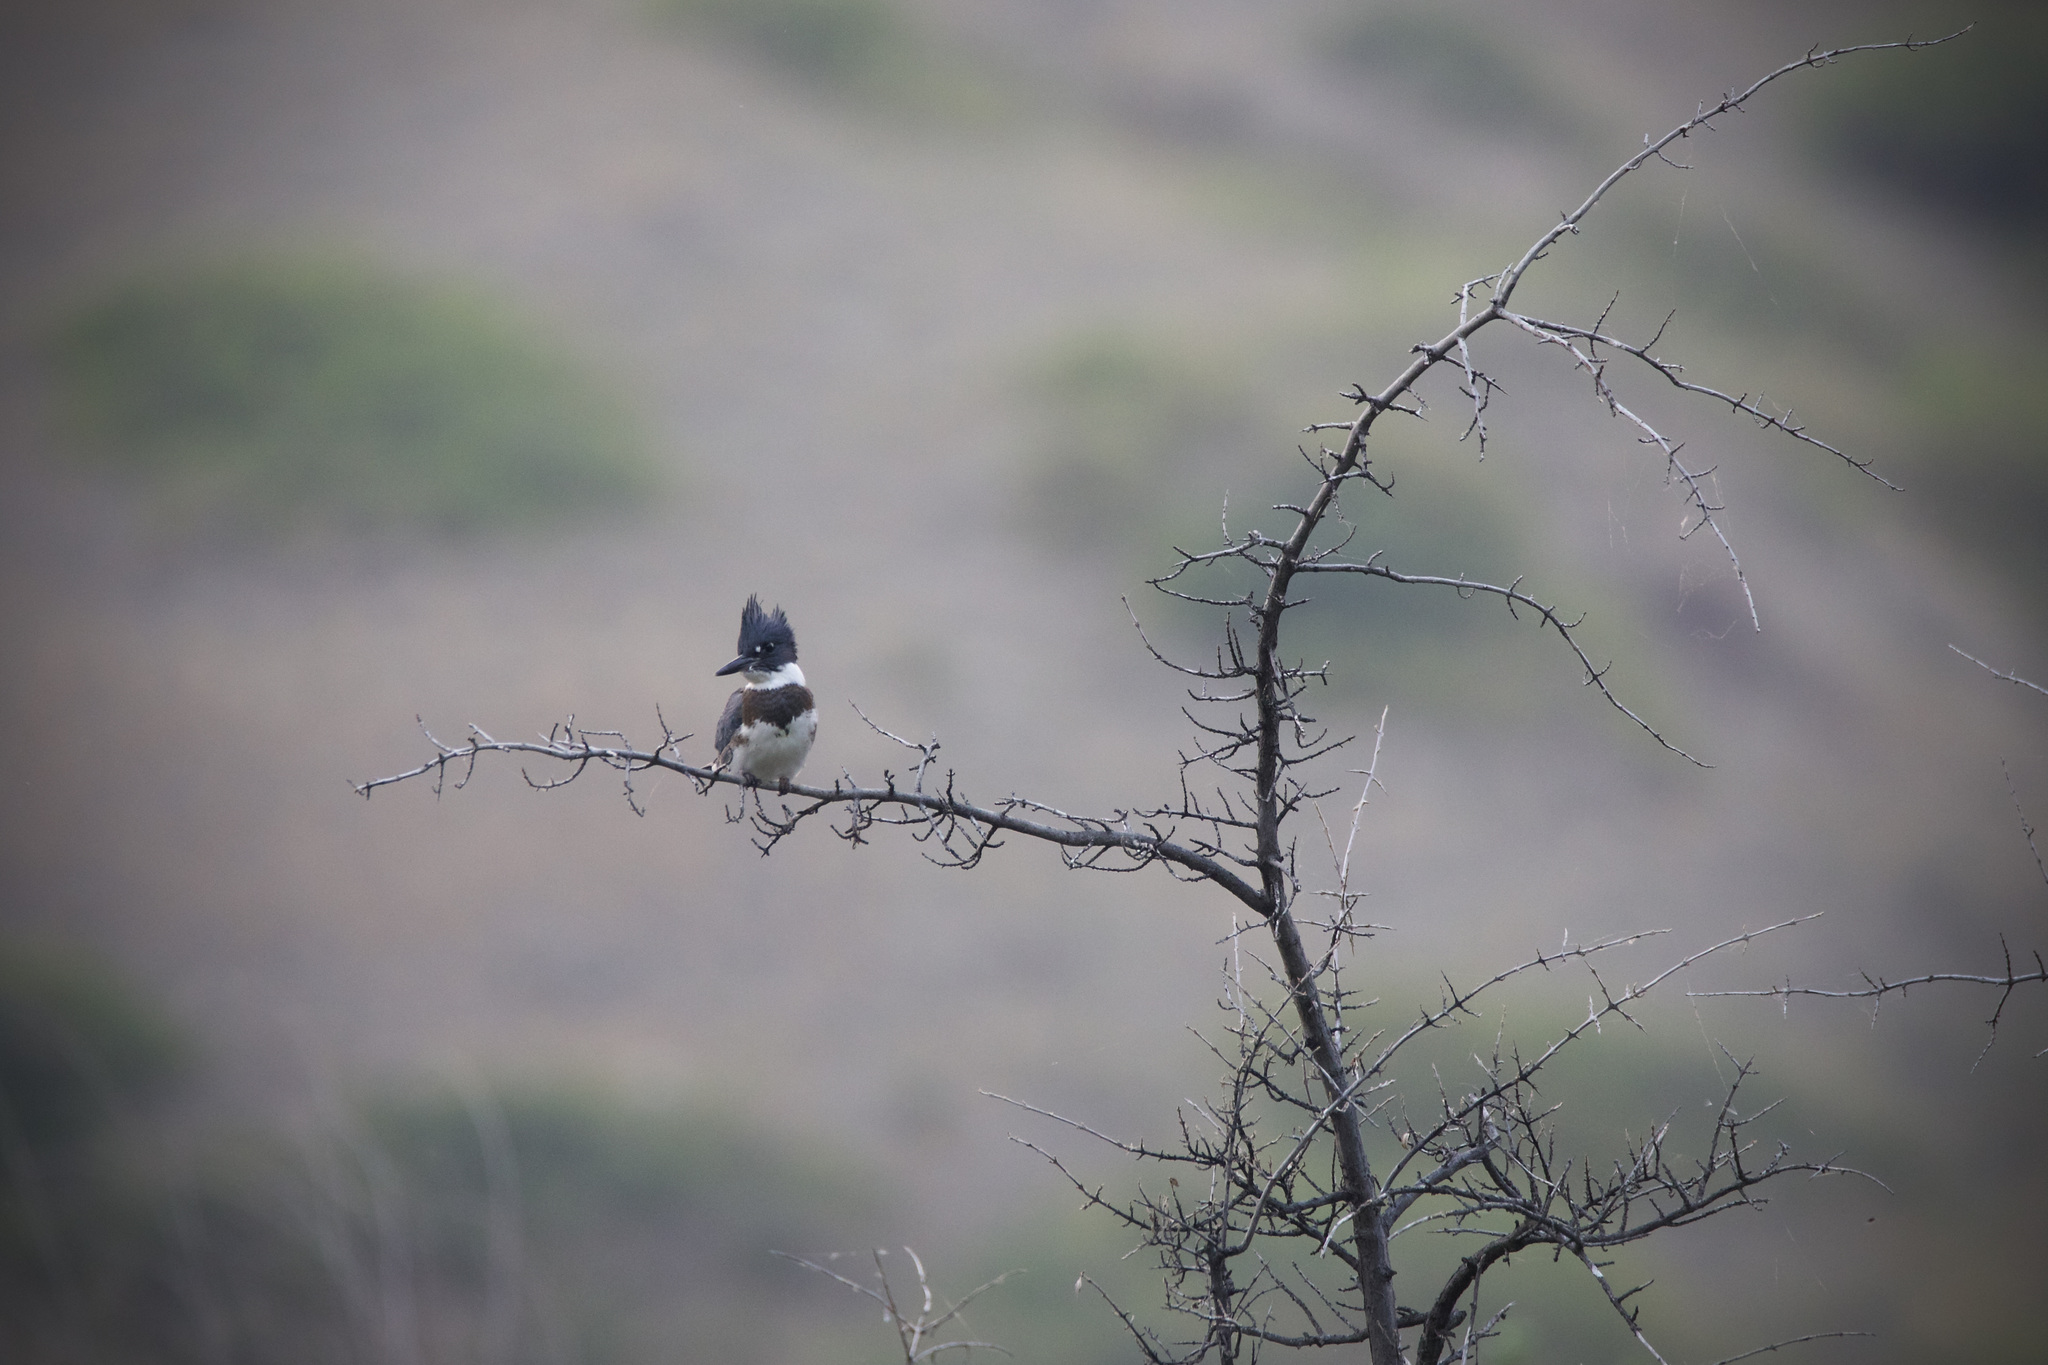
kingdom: Animalia
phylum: Chordata
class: Aves
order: Coraciiformes
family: Alcedinidae
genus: Megaceryle
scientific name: Megaceryle alcyon
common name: Belted kingfisher
